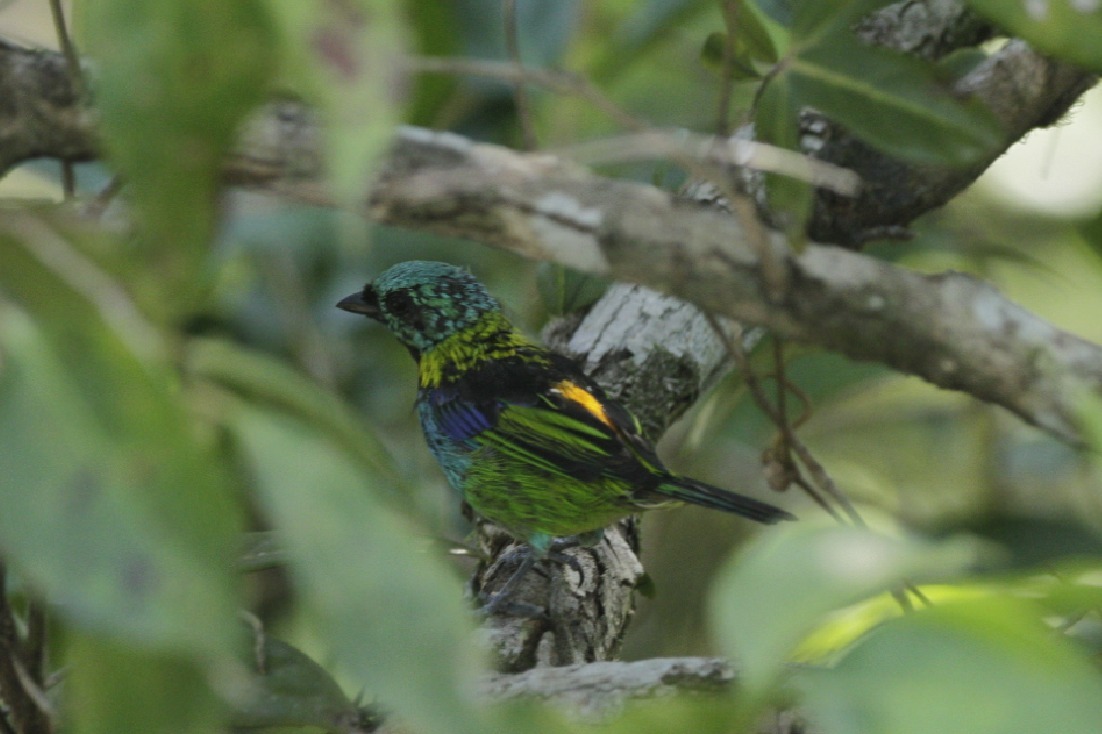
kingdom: Animalia
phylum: Chordata
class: Aves
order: Passeriformes
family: Thraupidae
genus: Tangara
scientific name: Tangara seledon
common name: Green-headed tanager
